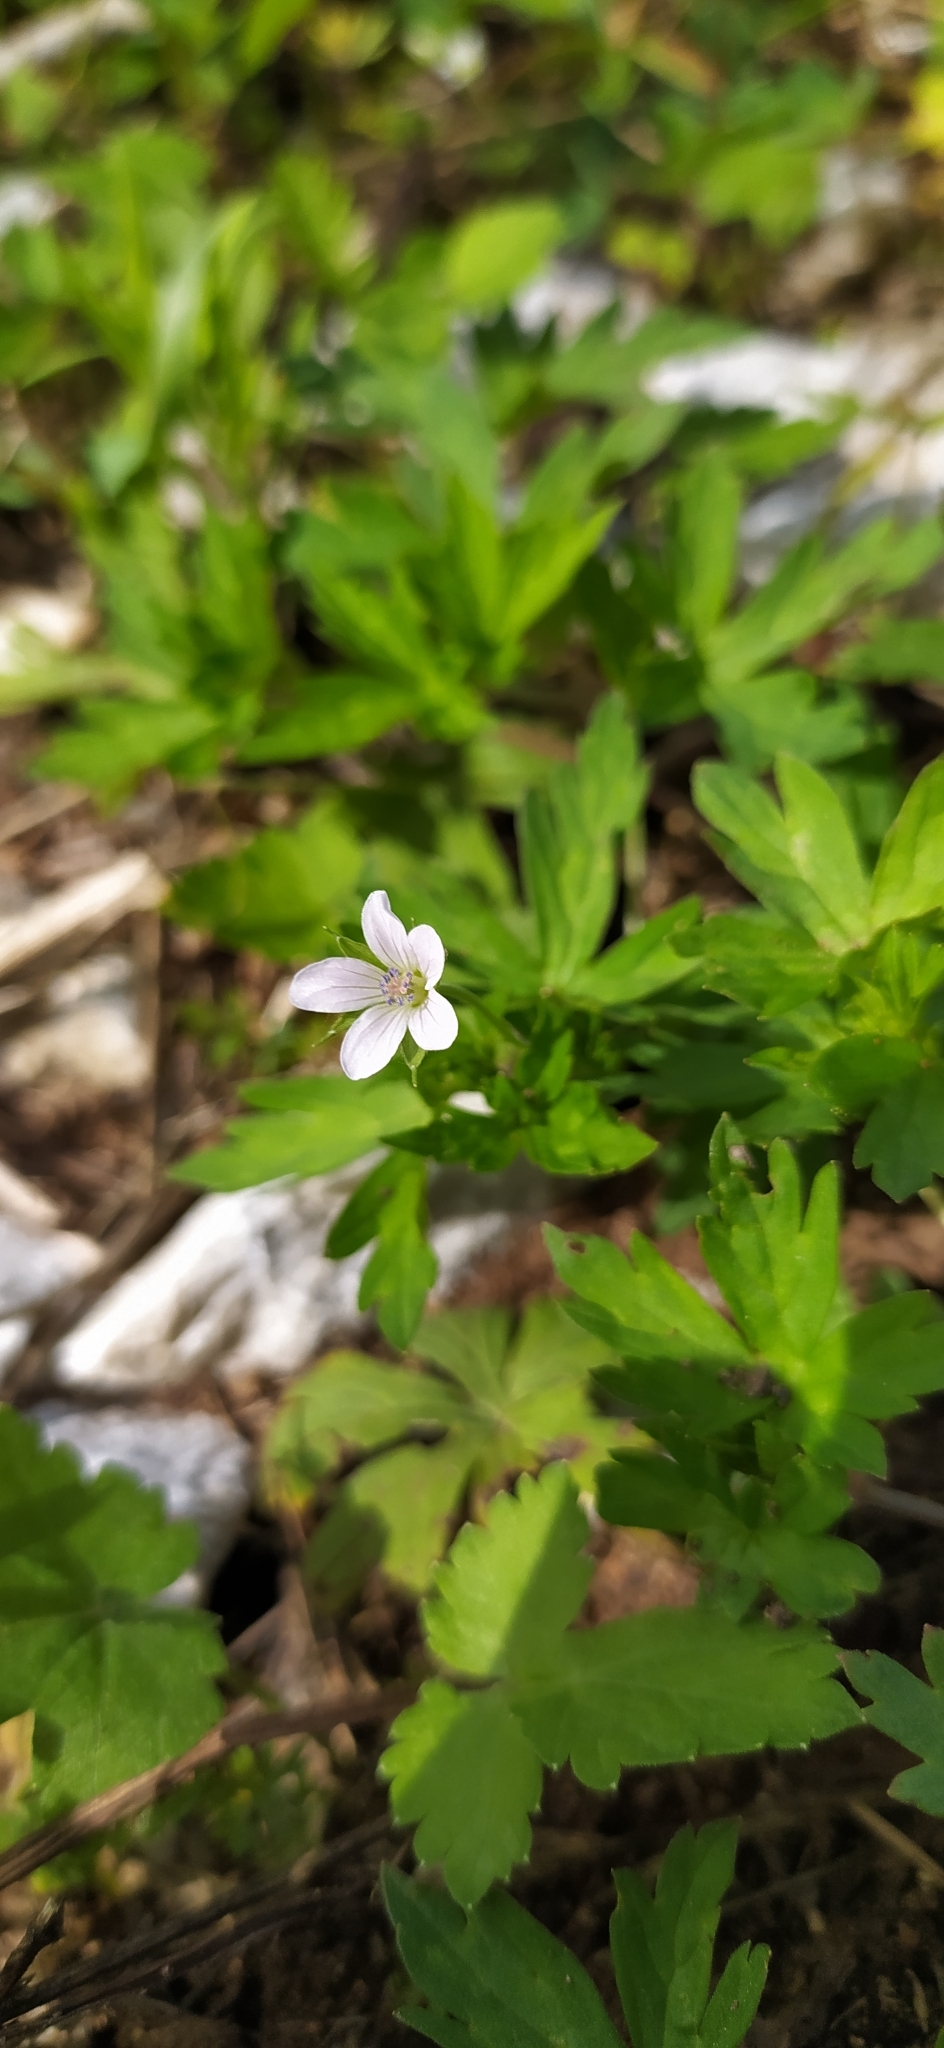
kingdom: Plantae
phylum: Tracheophyta
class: Magnoliopsida
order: Geraniales
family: Geraniaceae
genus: Geranium
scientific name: Geranium sibiricum
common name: Siberian crane's-bill
